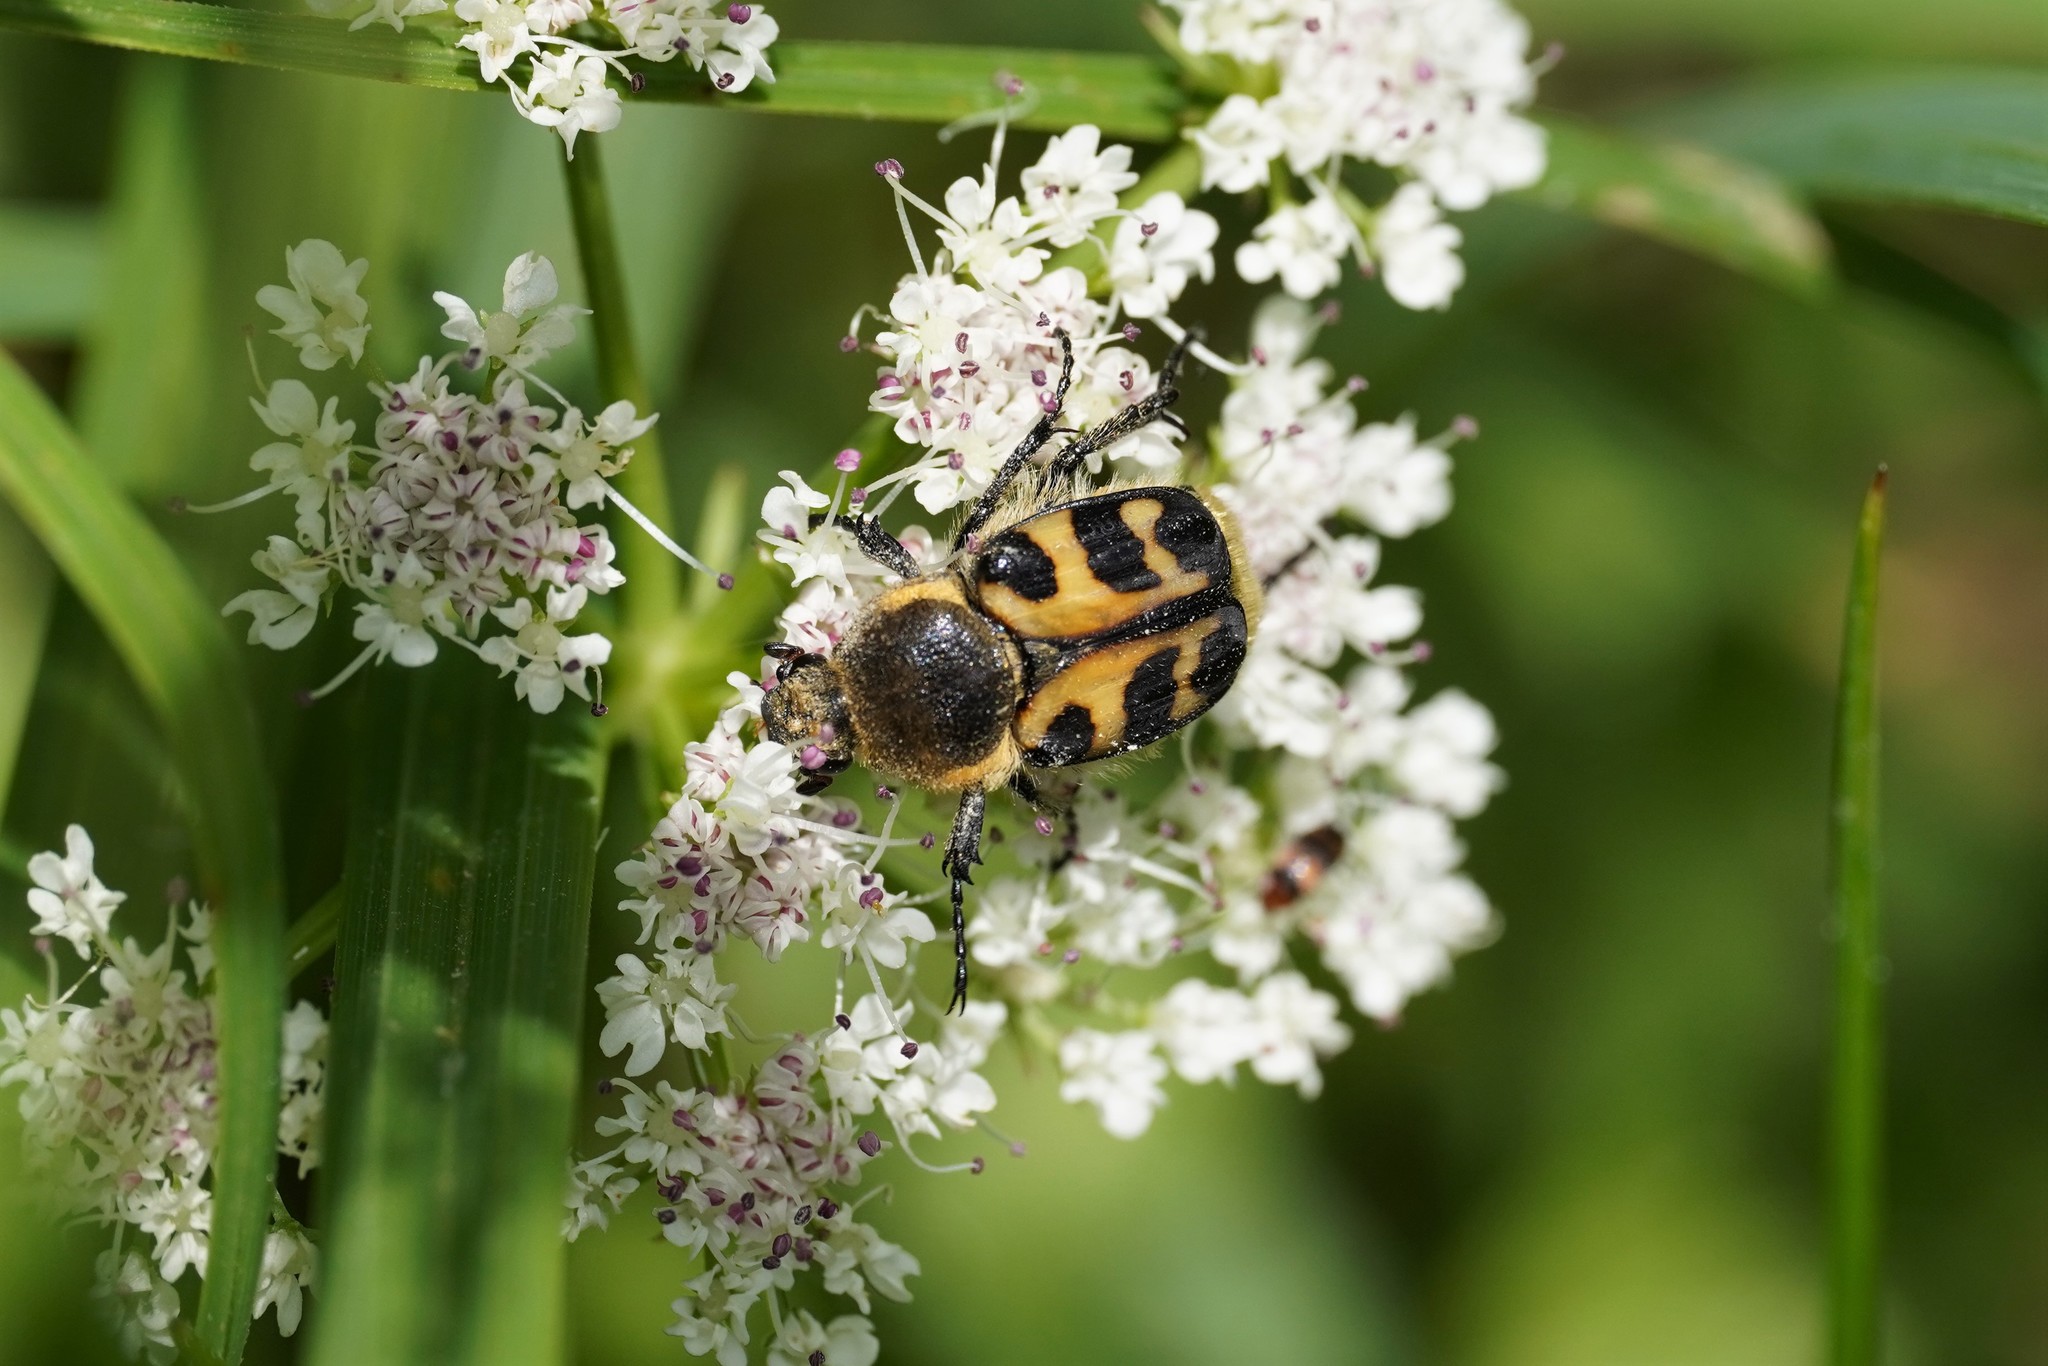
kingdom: Animalia
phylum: Arthropoda
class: Insecta
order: Coleoptera
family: Scarabaeidae
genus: Trichius
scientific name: Trichius gallicus
